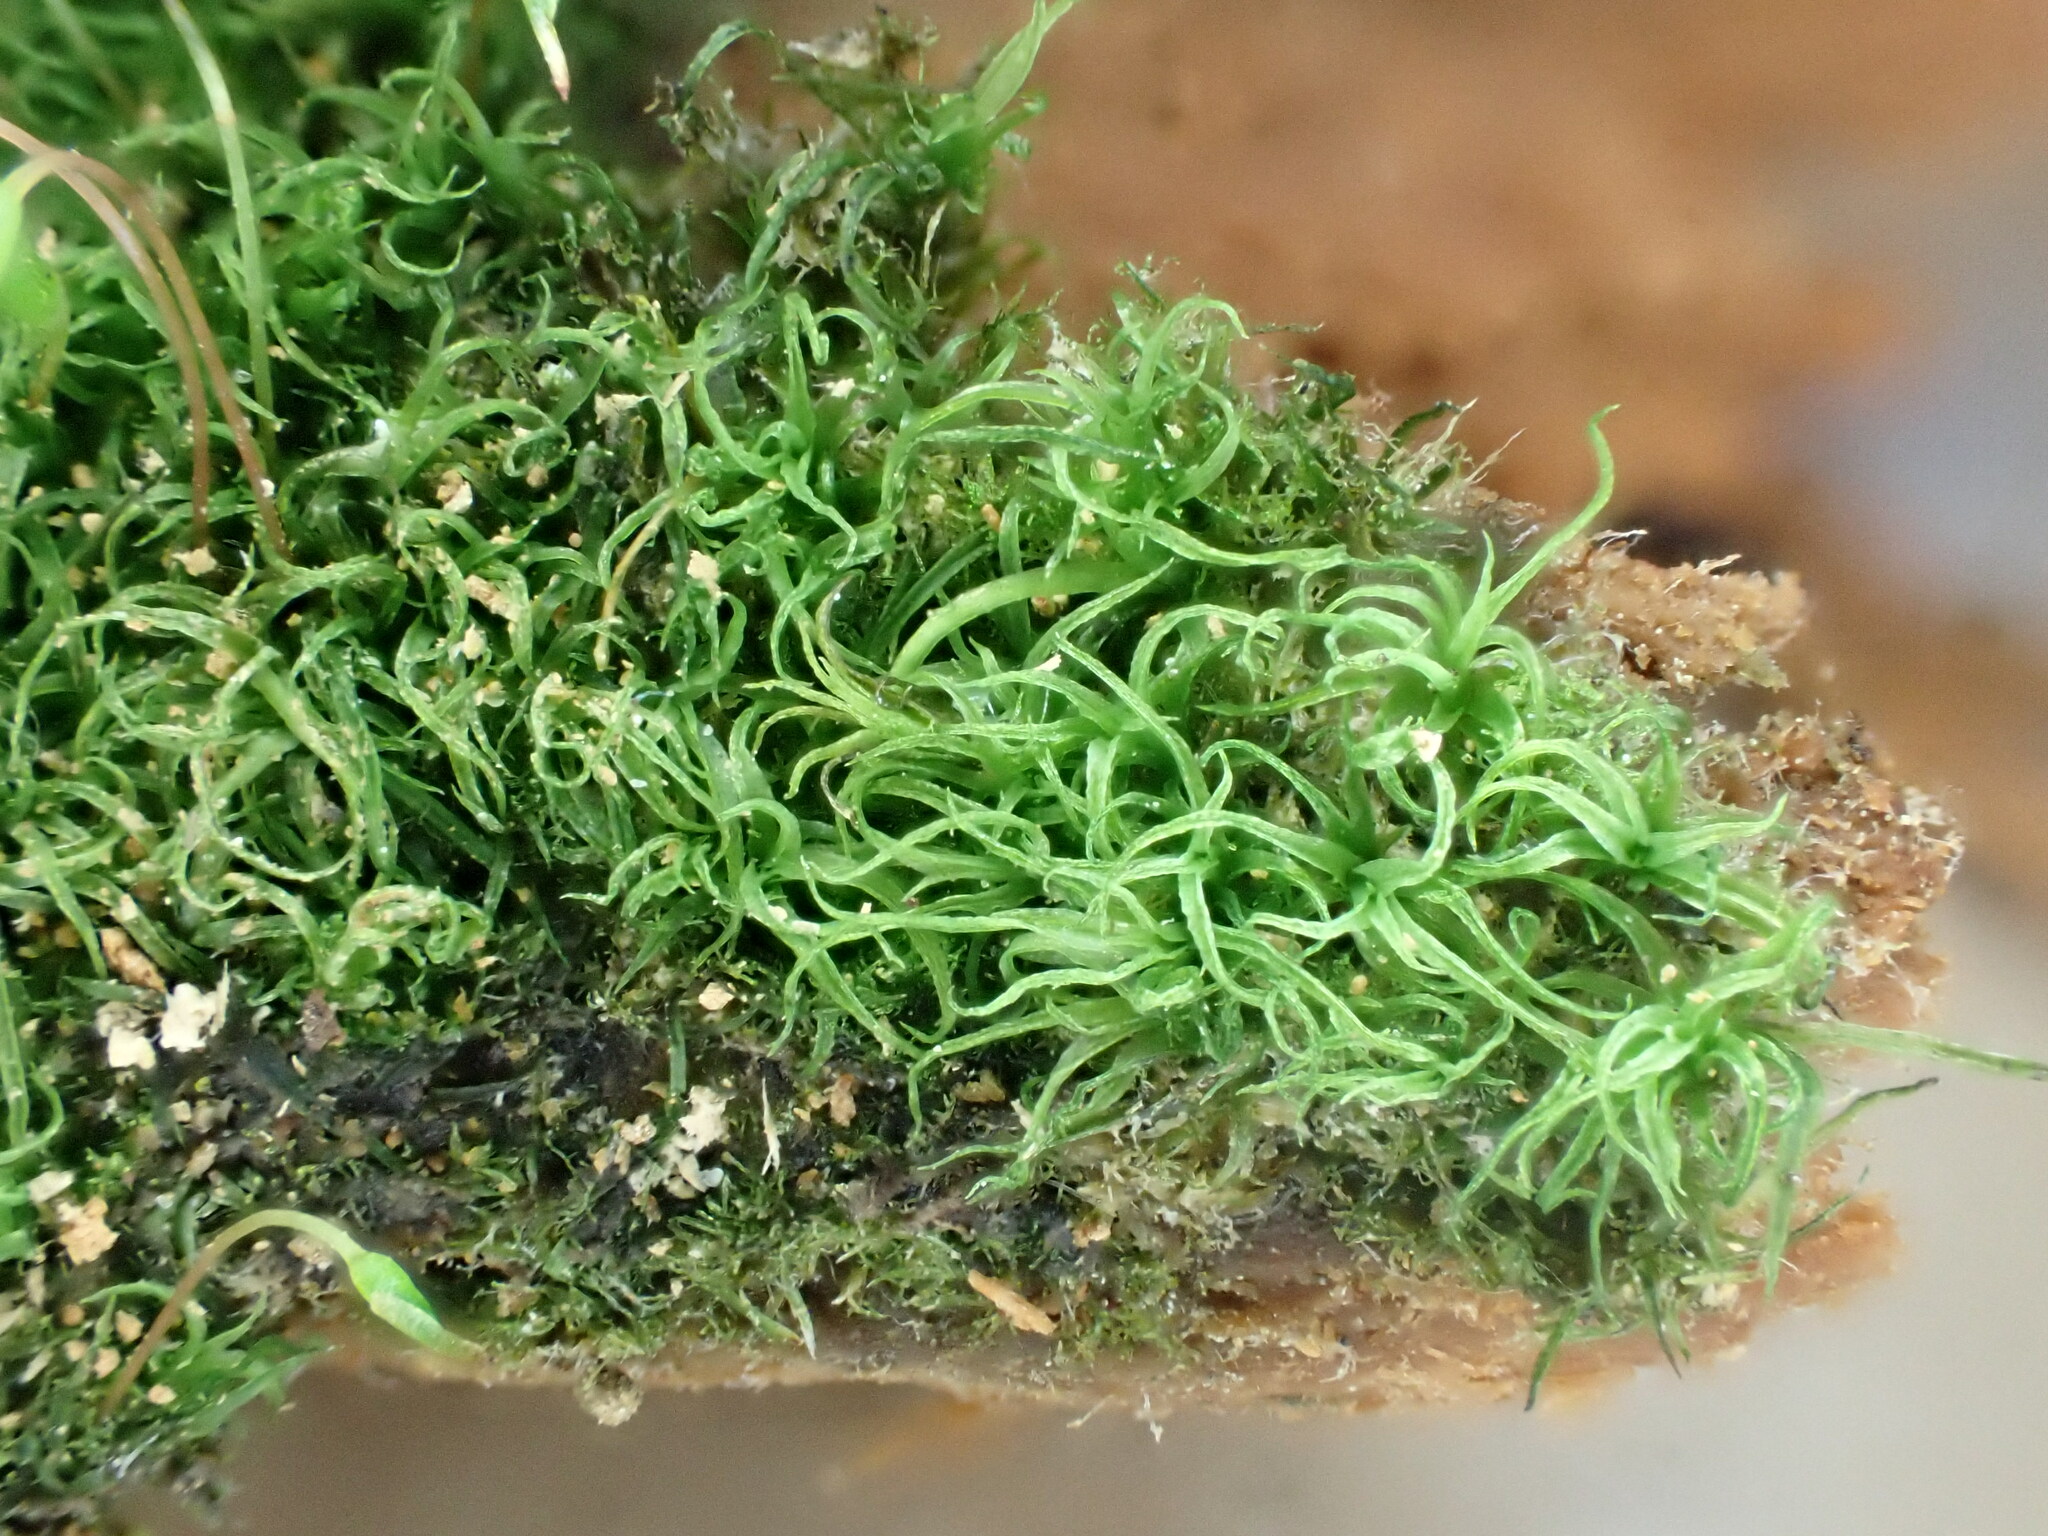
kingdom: Plantae
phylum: Bryophyta
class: Bryopsida
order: Orthodontiales
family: Orthodontiaceae
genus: Orthodontium
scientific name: Orthodontium lineare
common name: Cape thread-moss
